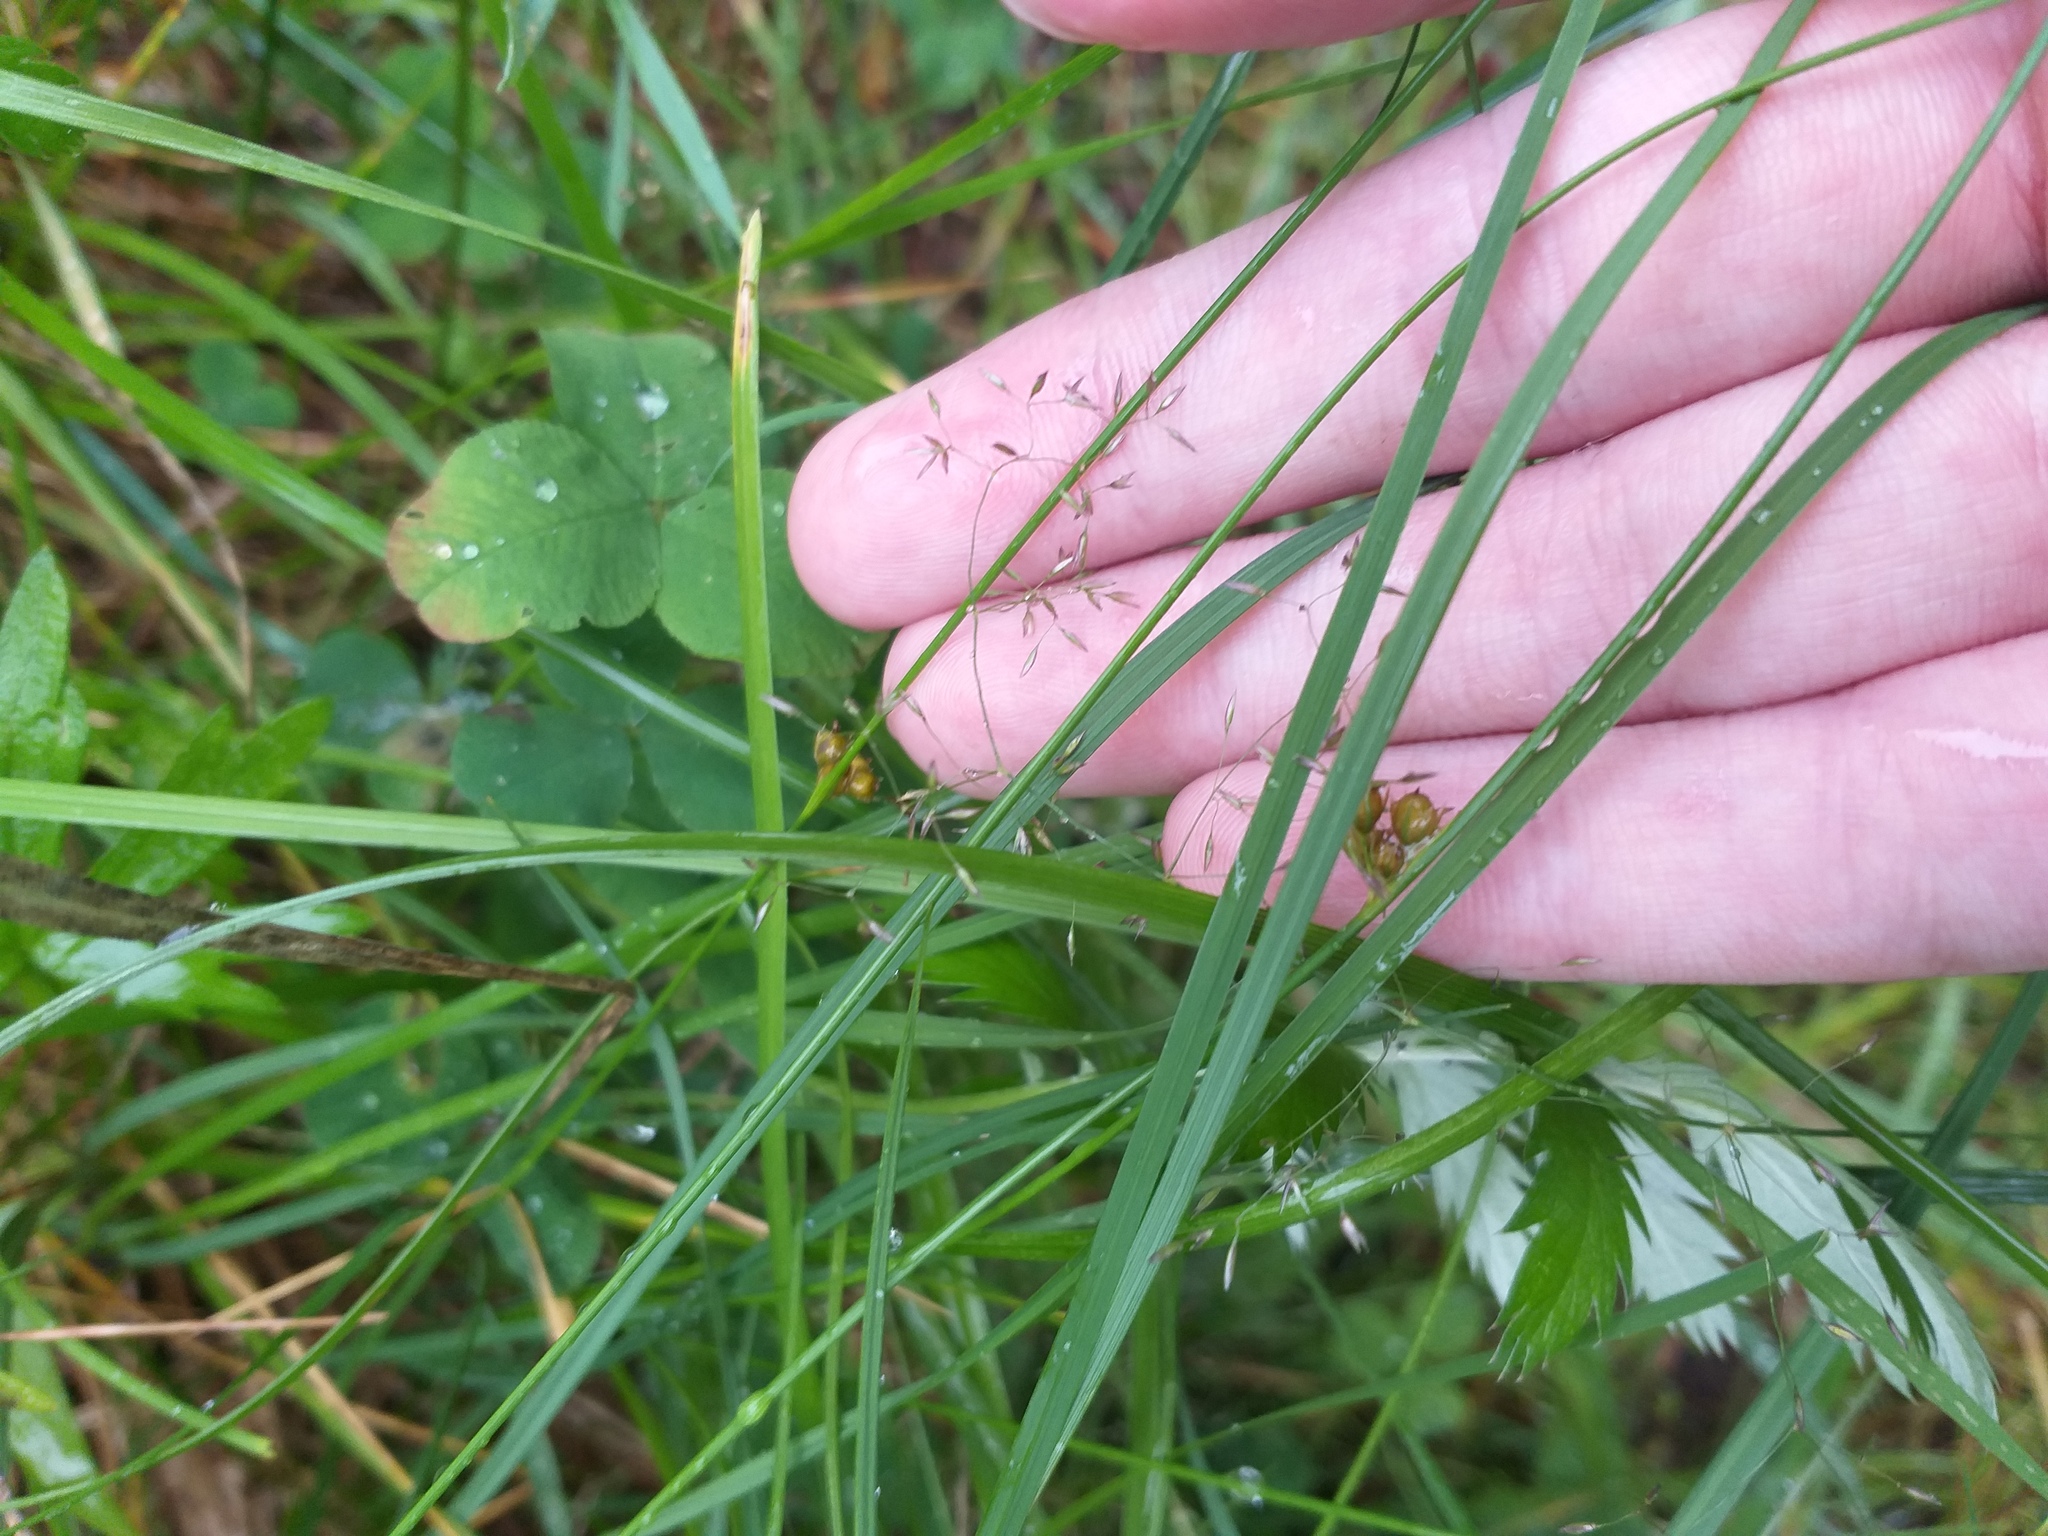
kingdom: Plantae
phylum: Tracheophyta
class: Liliopsida
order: Poales
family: Juncaceae
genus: Juncus
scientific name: Juncus filiformis
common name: Thread rush
